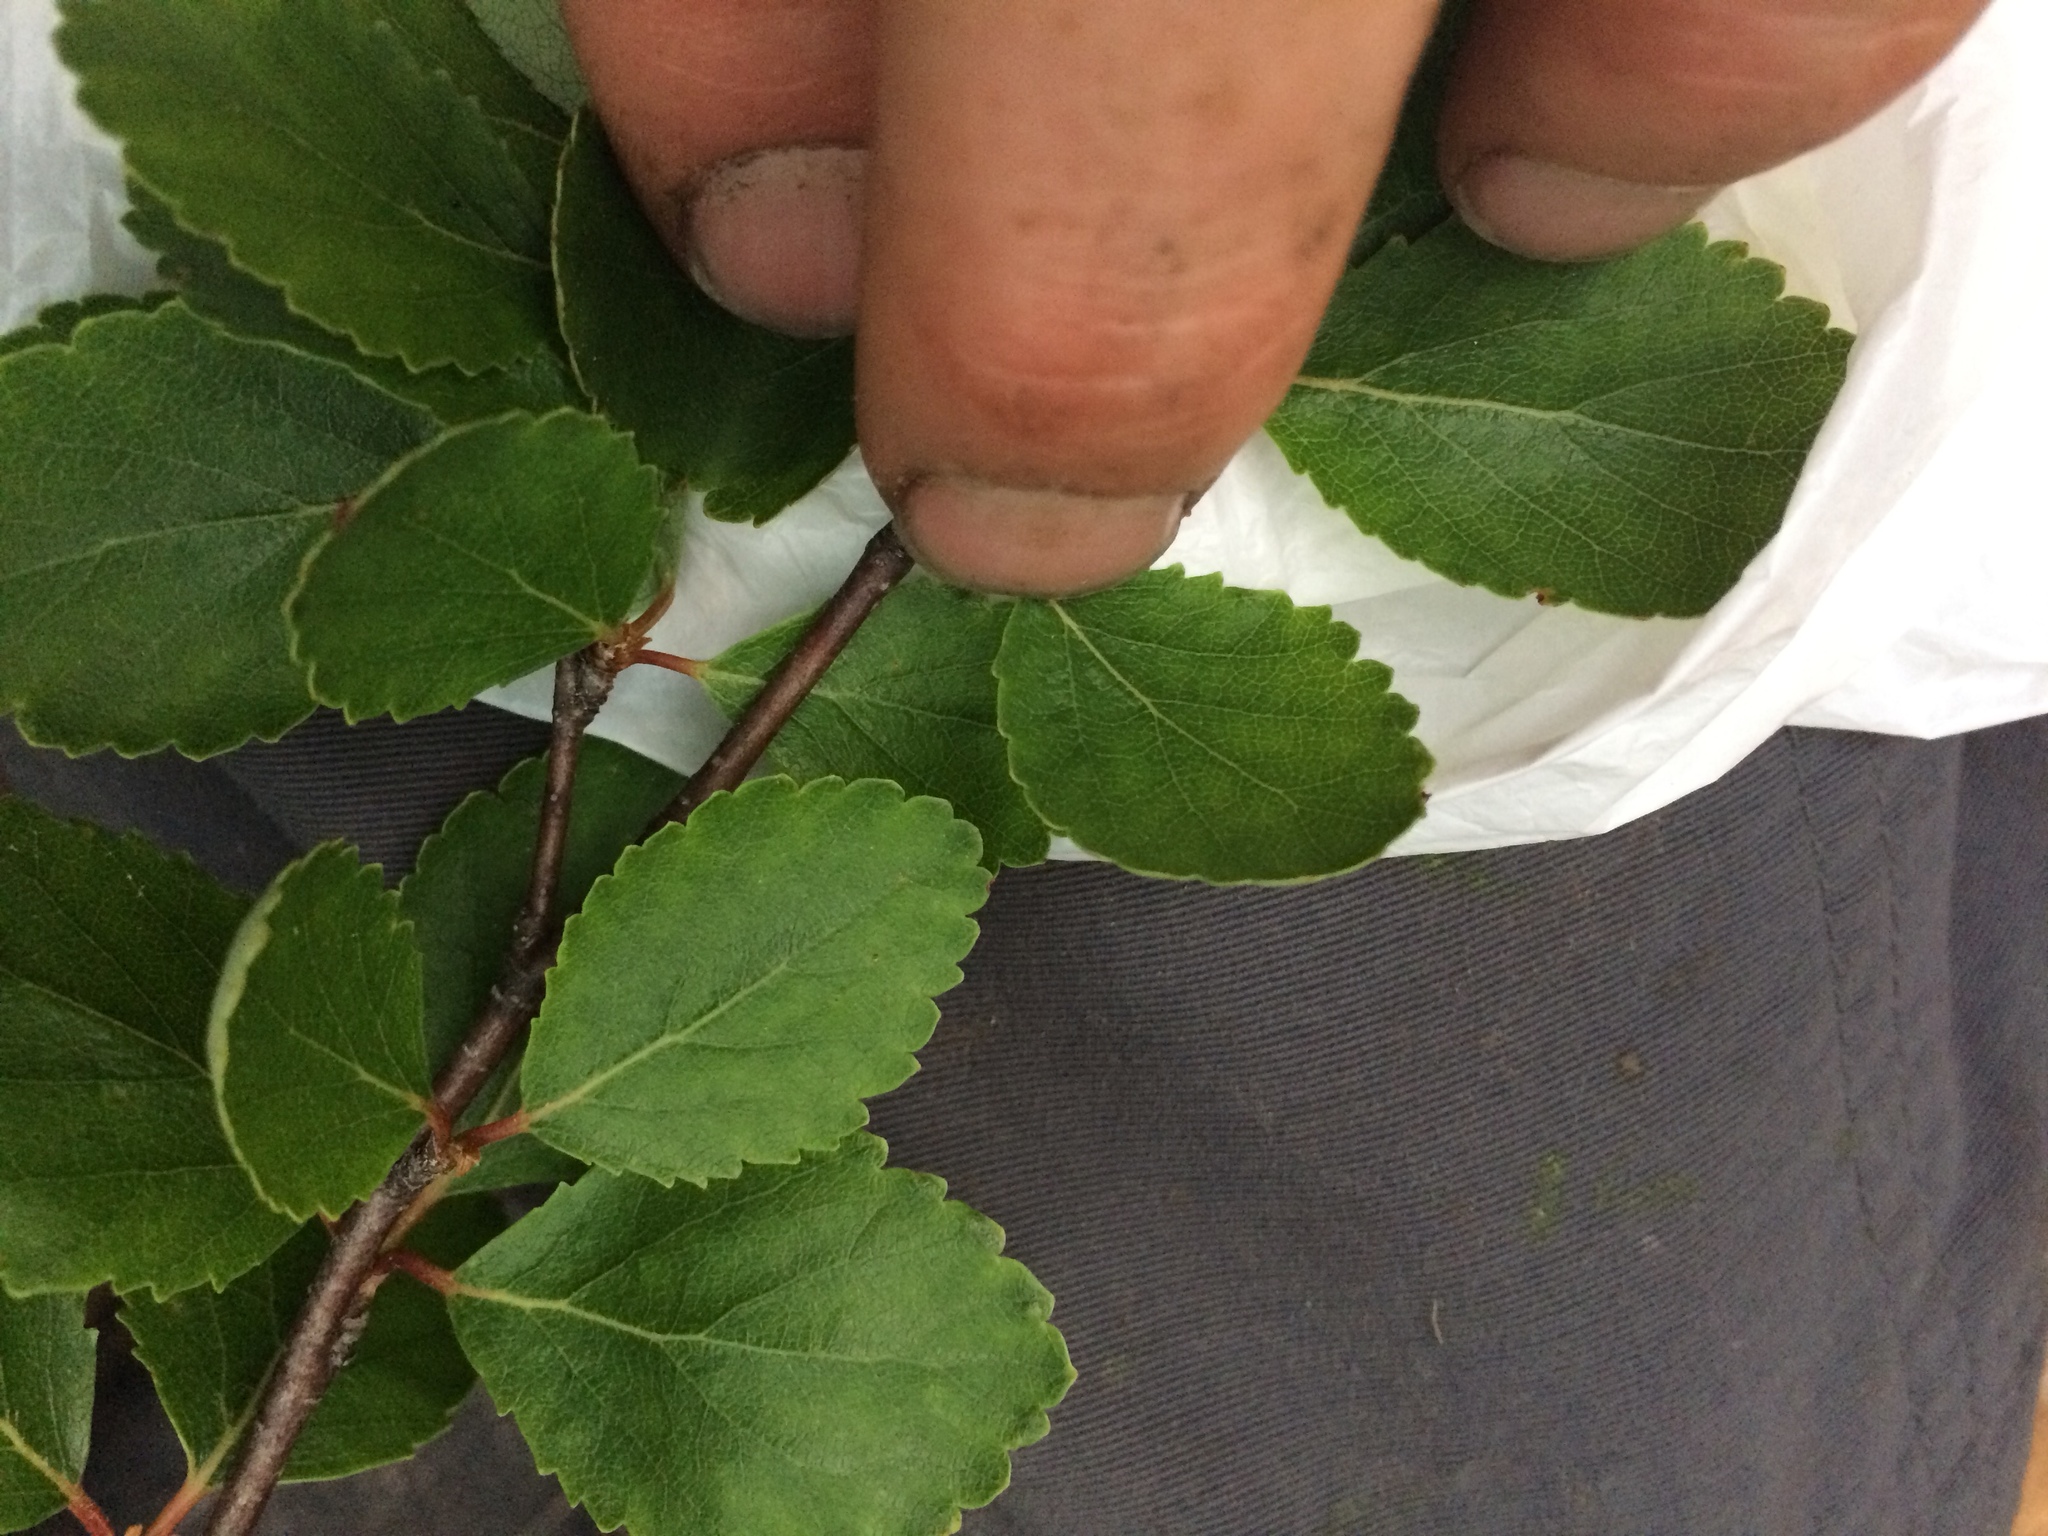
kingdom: Plantae
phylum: Tracheophyta
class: Magnoliopsida
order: Fagales
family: Betulaceae
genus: Betula
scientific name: Betula pumila
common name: Bog birch
